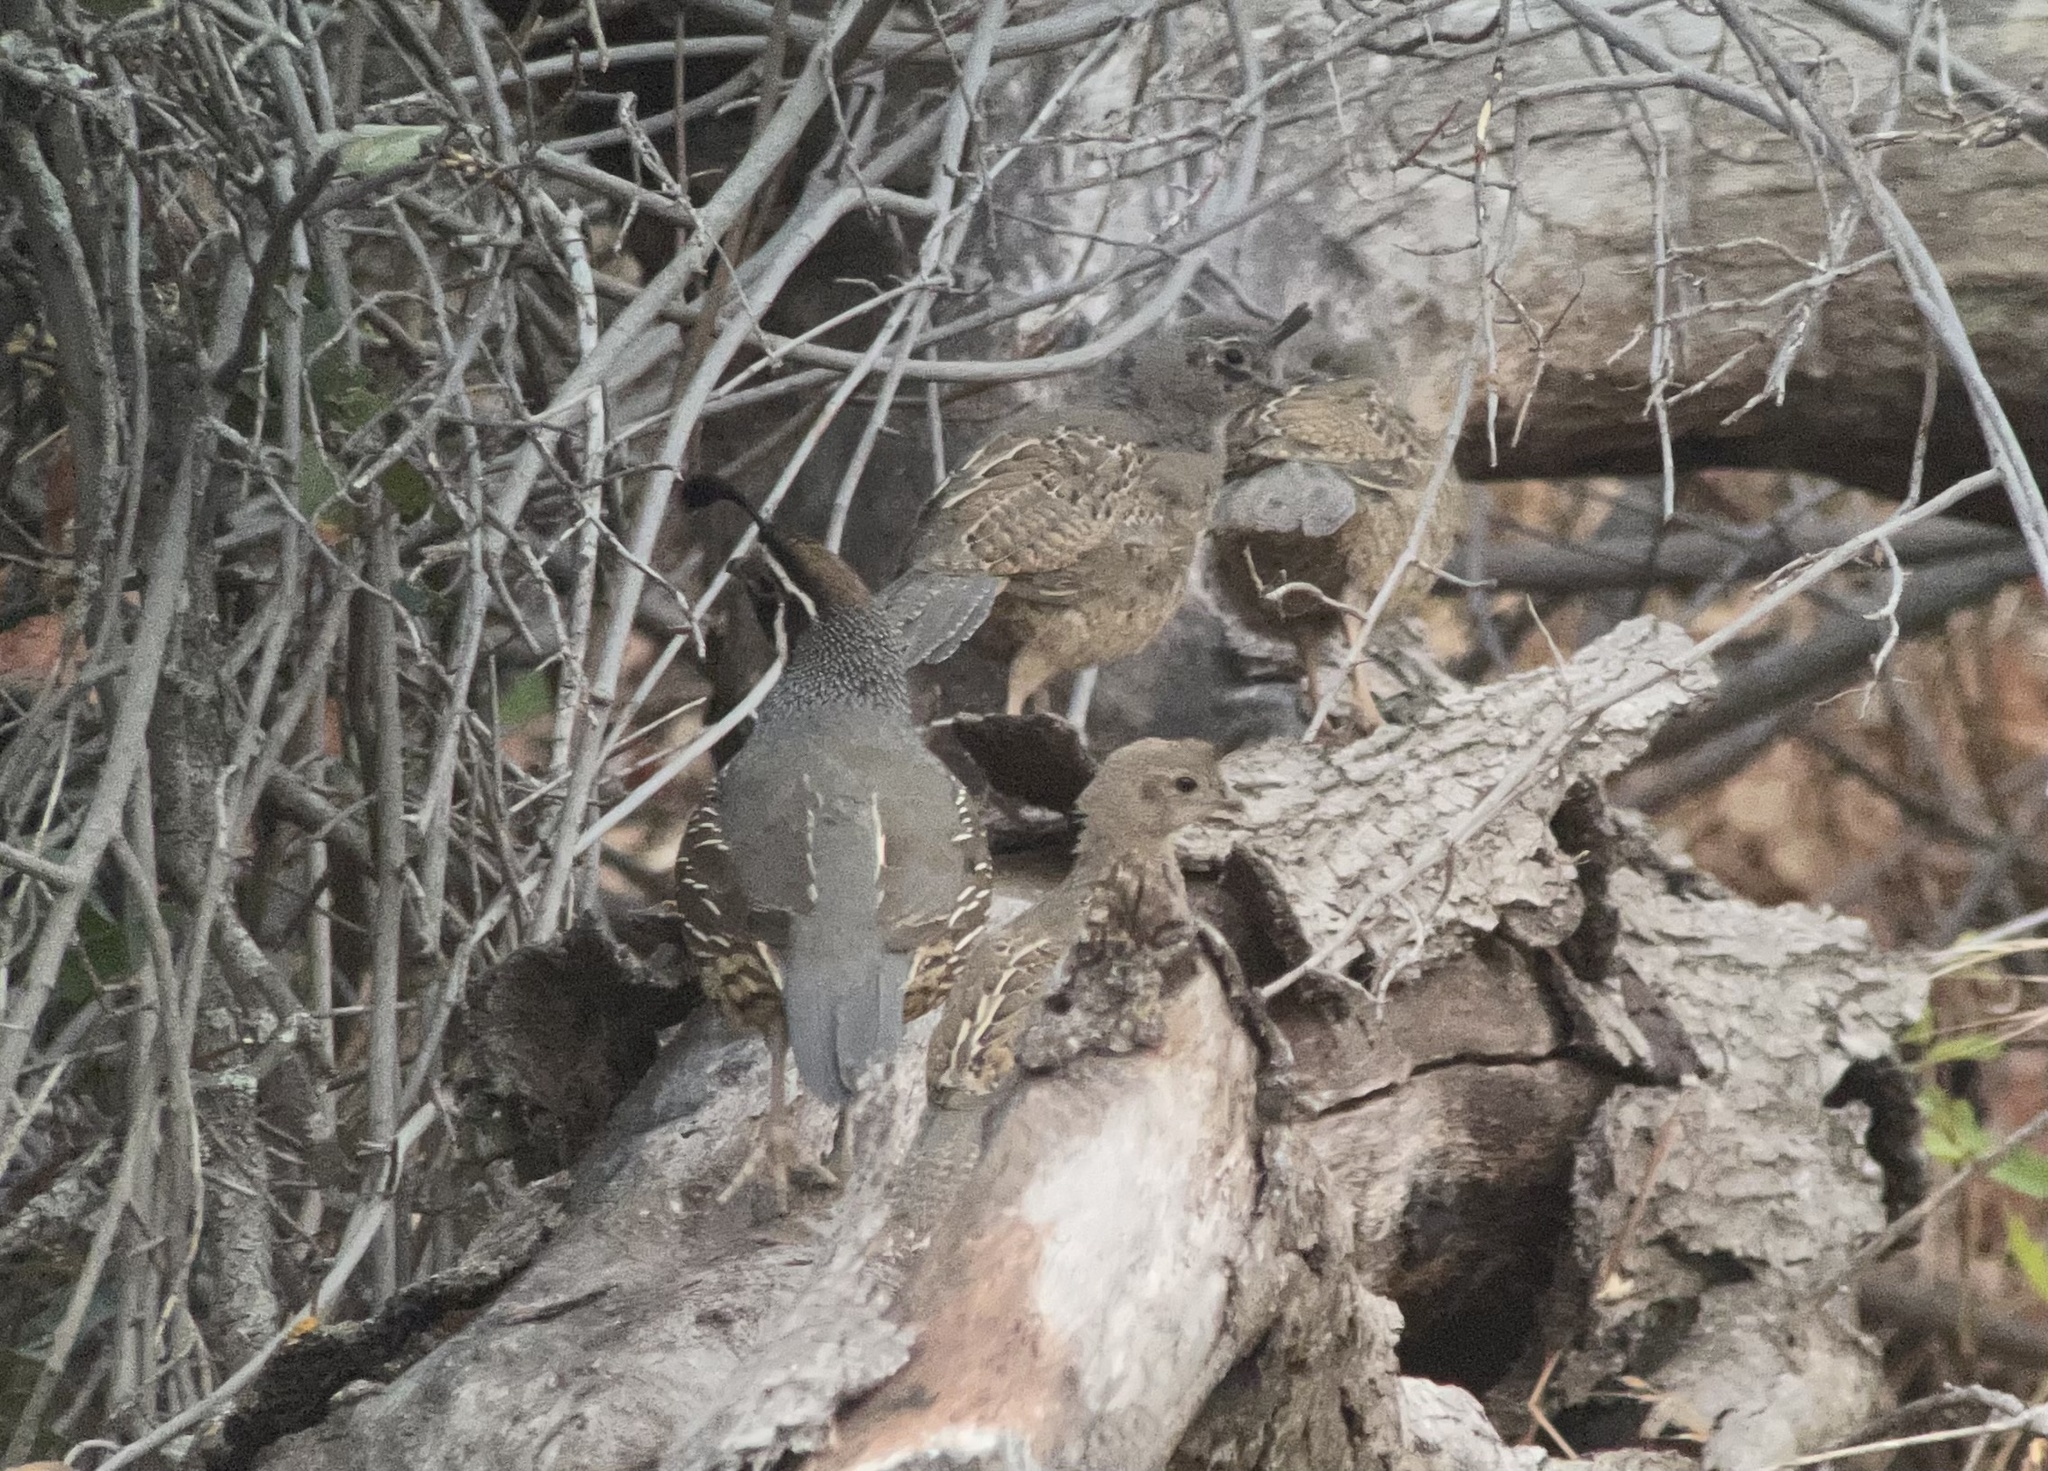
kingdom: Animalia
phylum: Chordata
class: Aves
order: Galliformes
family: Odontophoridae
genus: Callipepla
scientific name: Callipepla californica
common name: California quail
